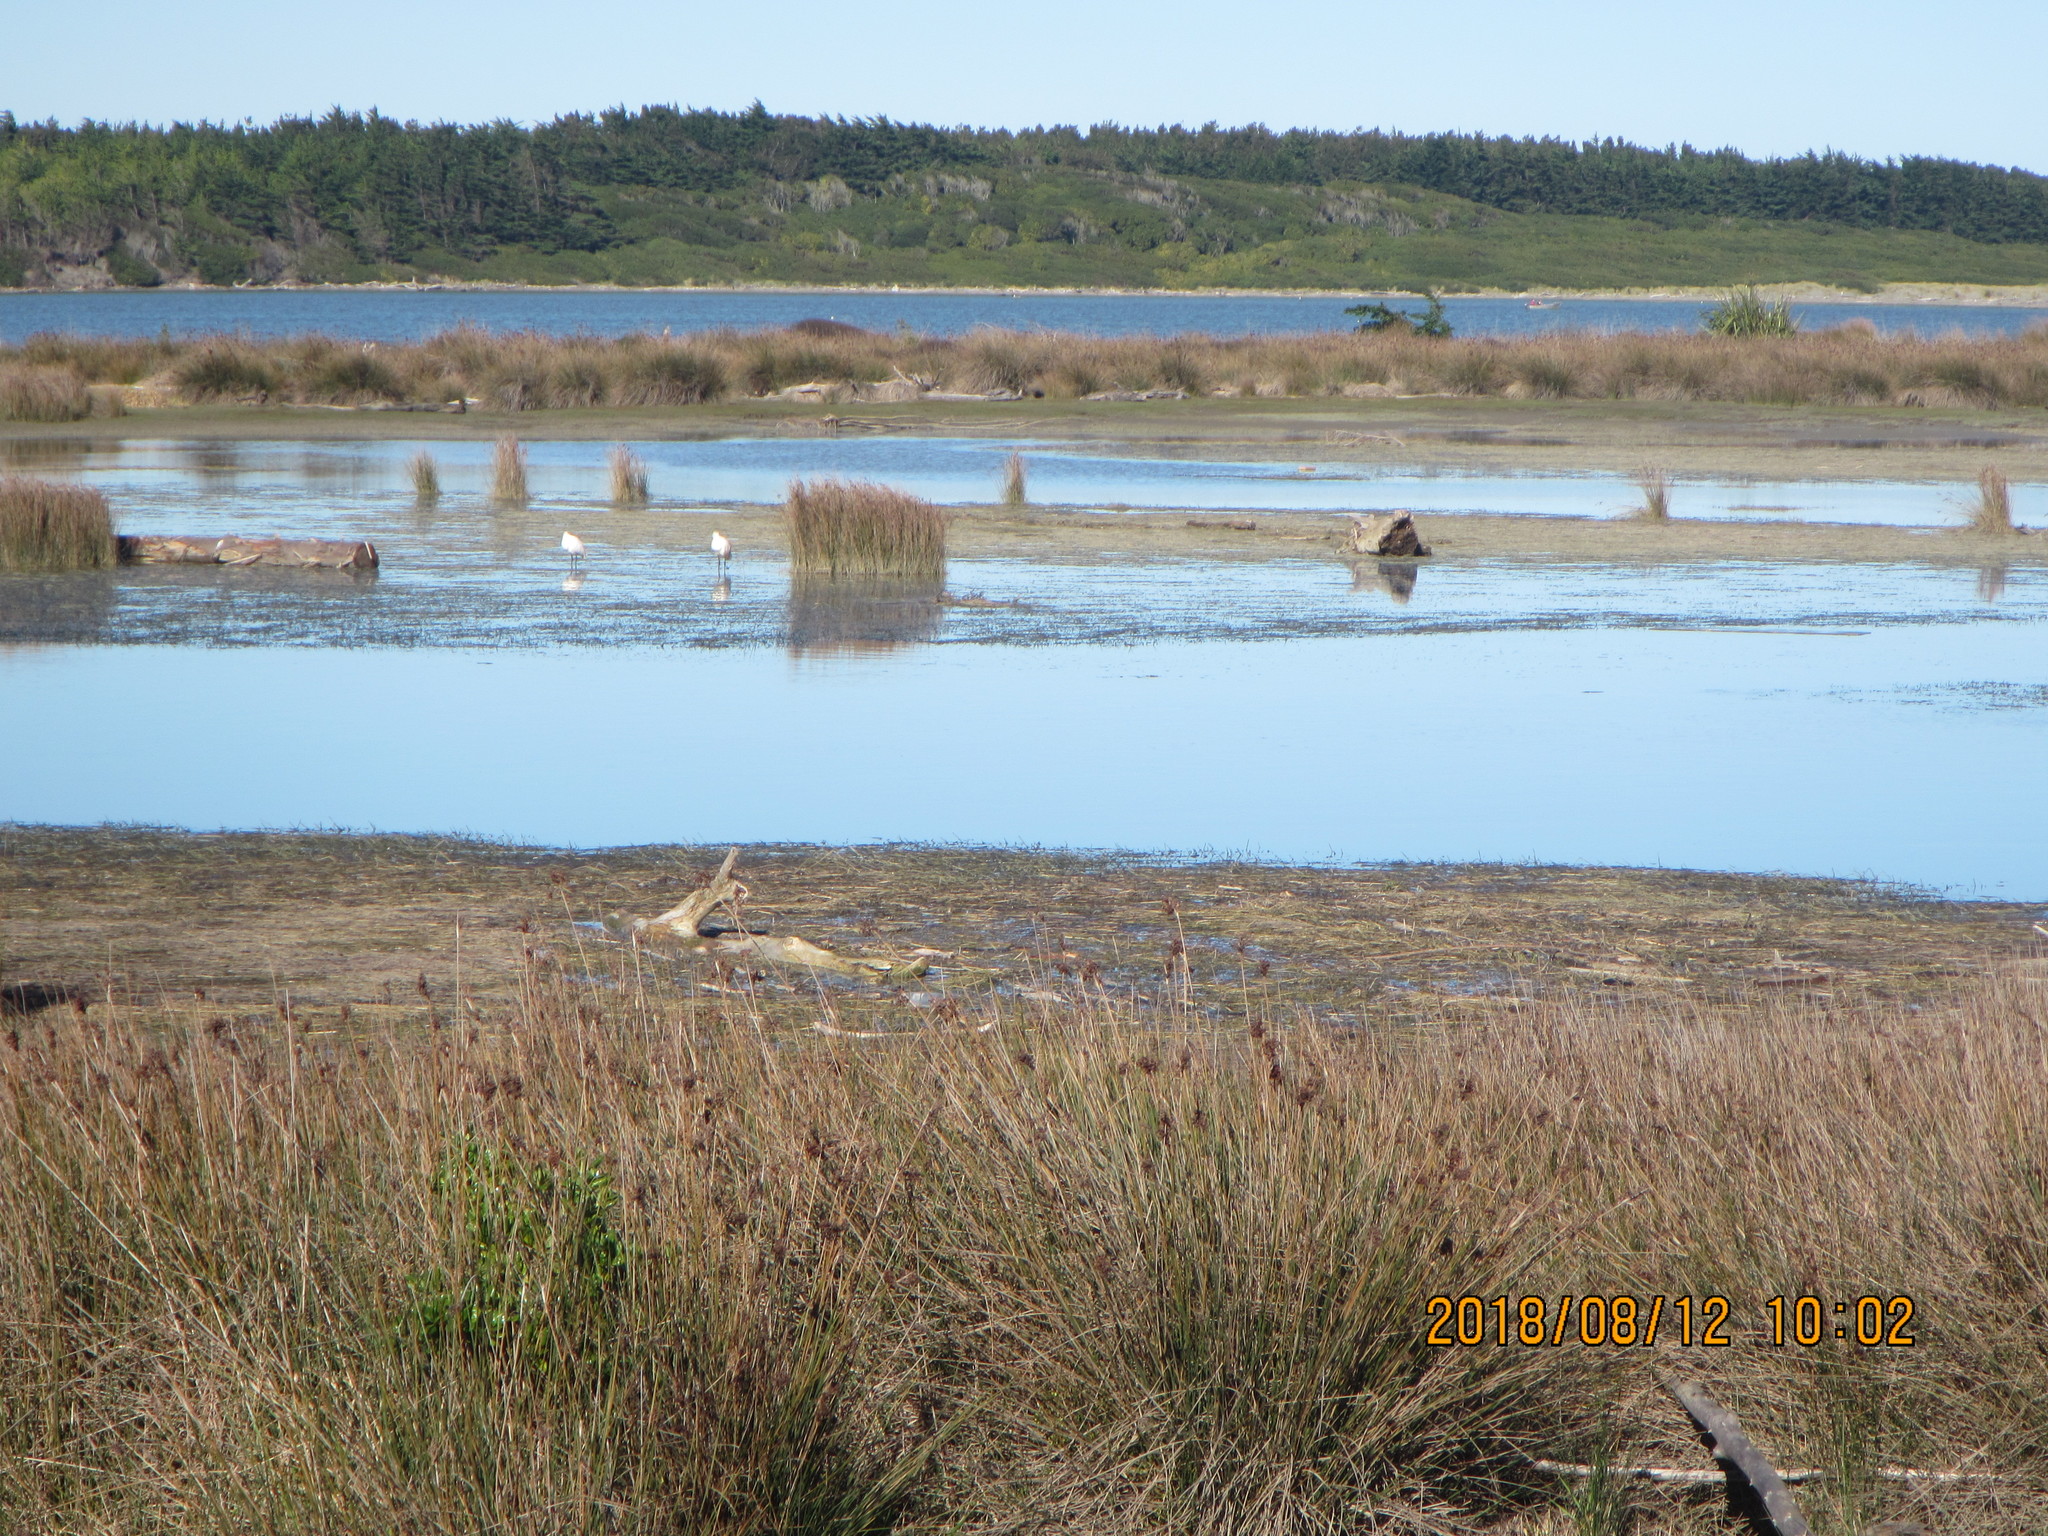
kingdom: Animalia
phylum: Chordata
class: Aves
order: Pelecaniformes
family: Threskiornithidae
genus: Platalea
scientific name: Platalea regia
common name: Royal spoonbill
